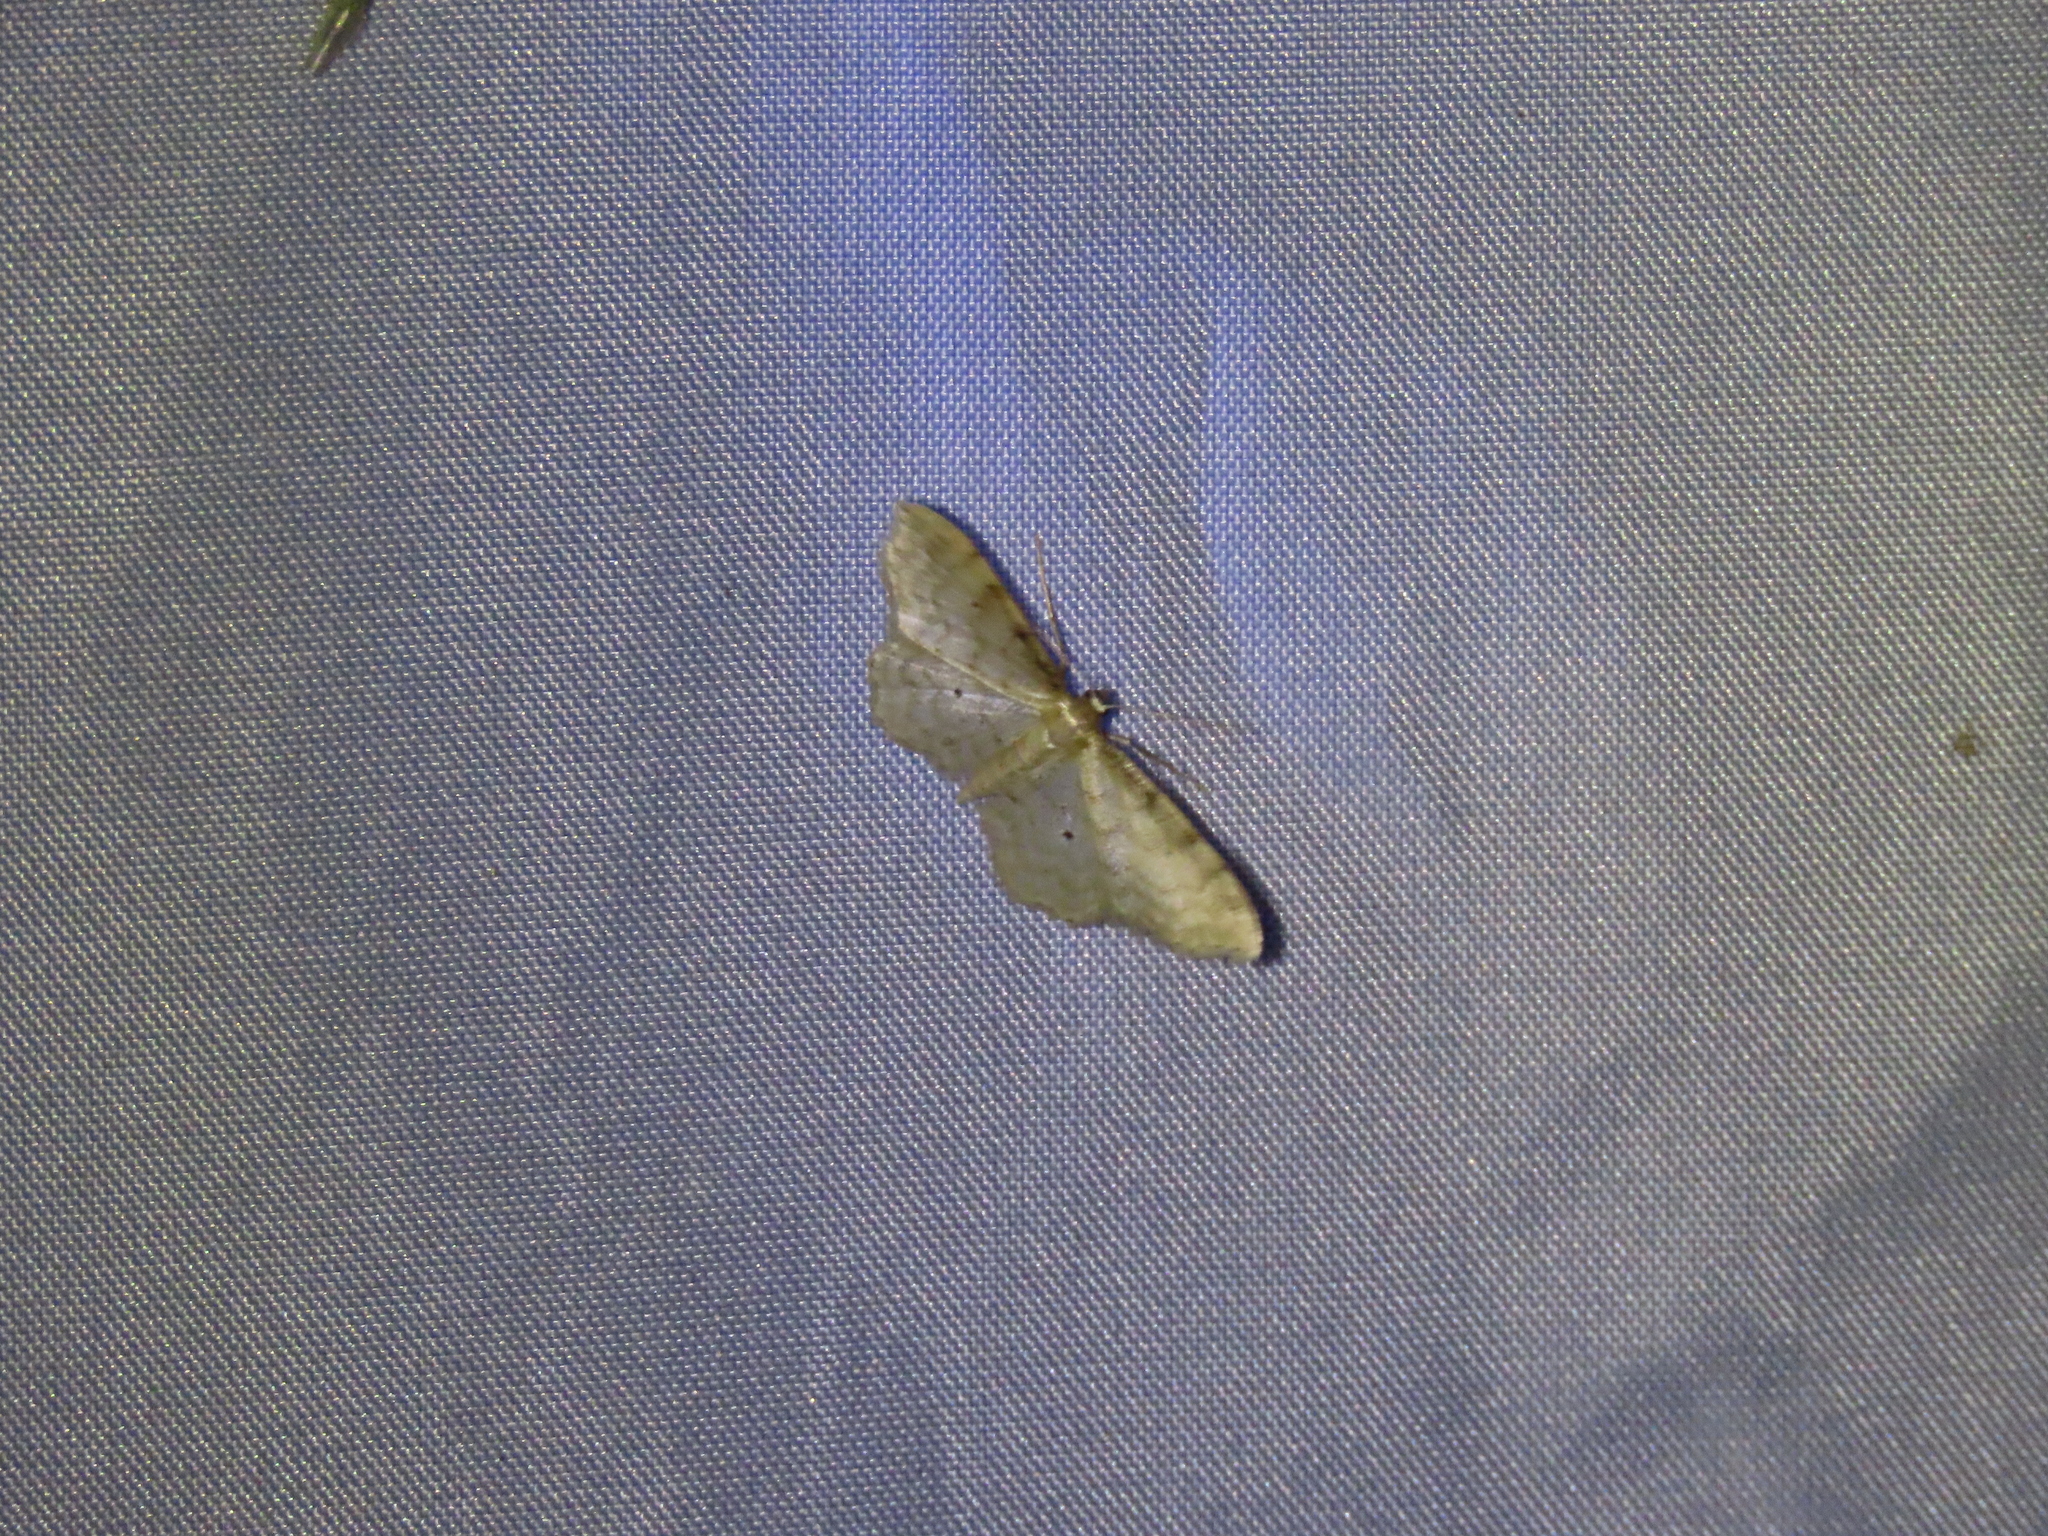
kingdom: Animalia
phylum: Arthropoda
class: Insecta
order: Lepidoptera
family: Geometridae
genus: Idaea
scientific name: Idaea fuscovenosa
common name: Dwarf cream wave
